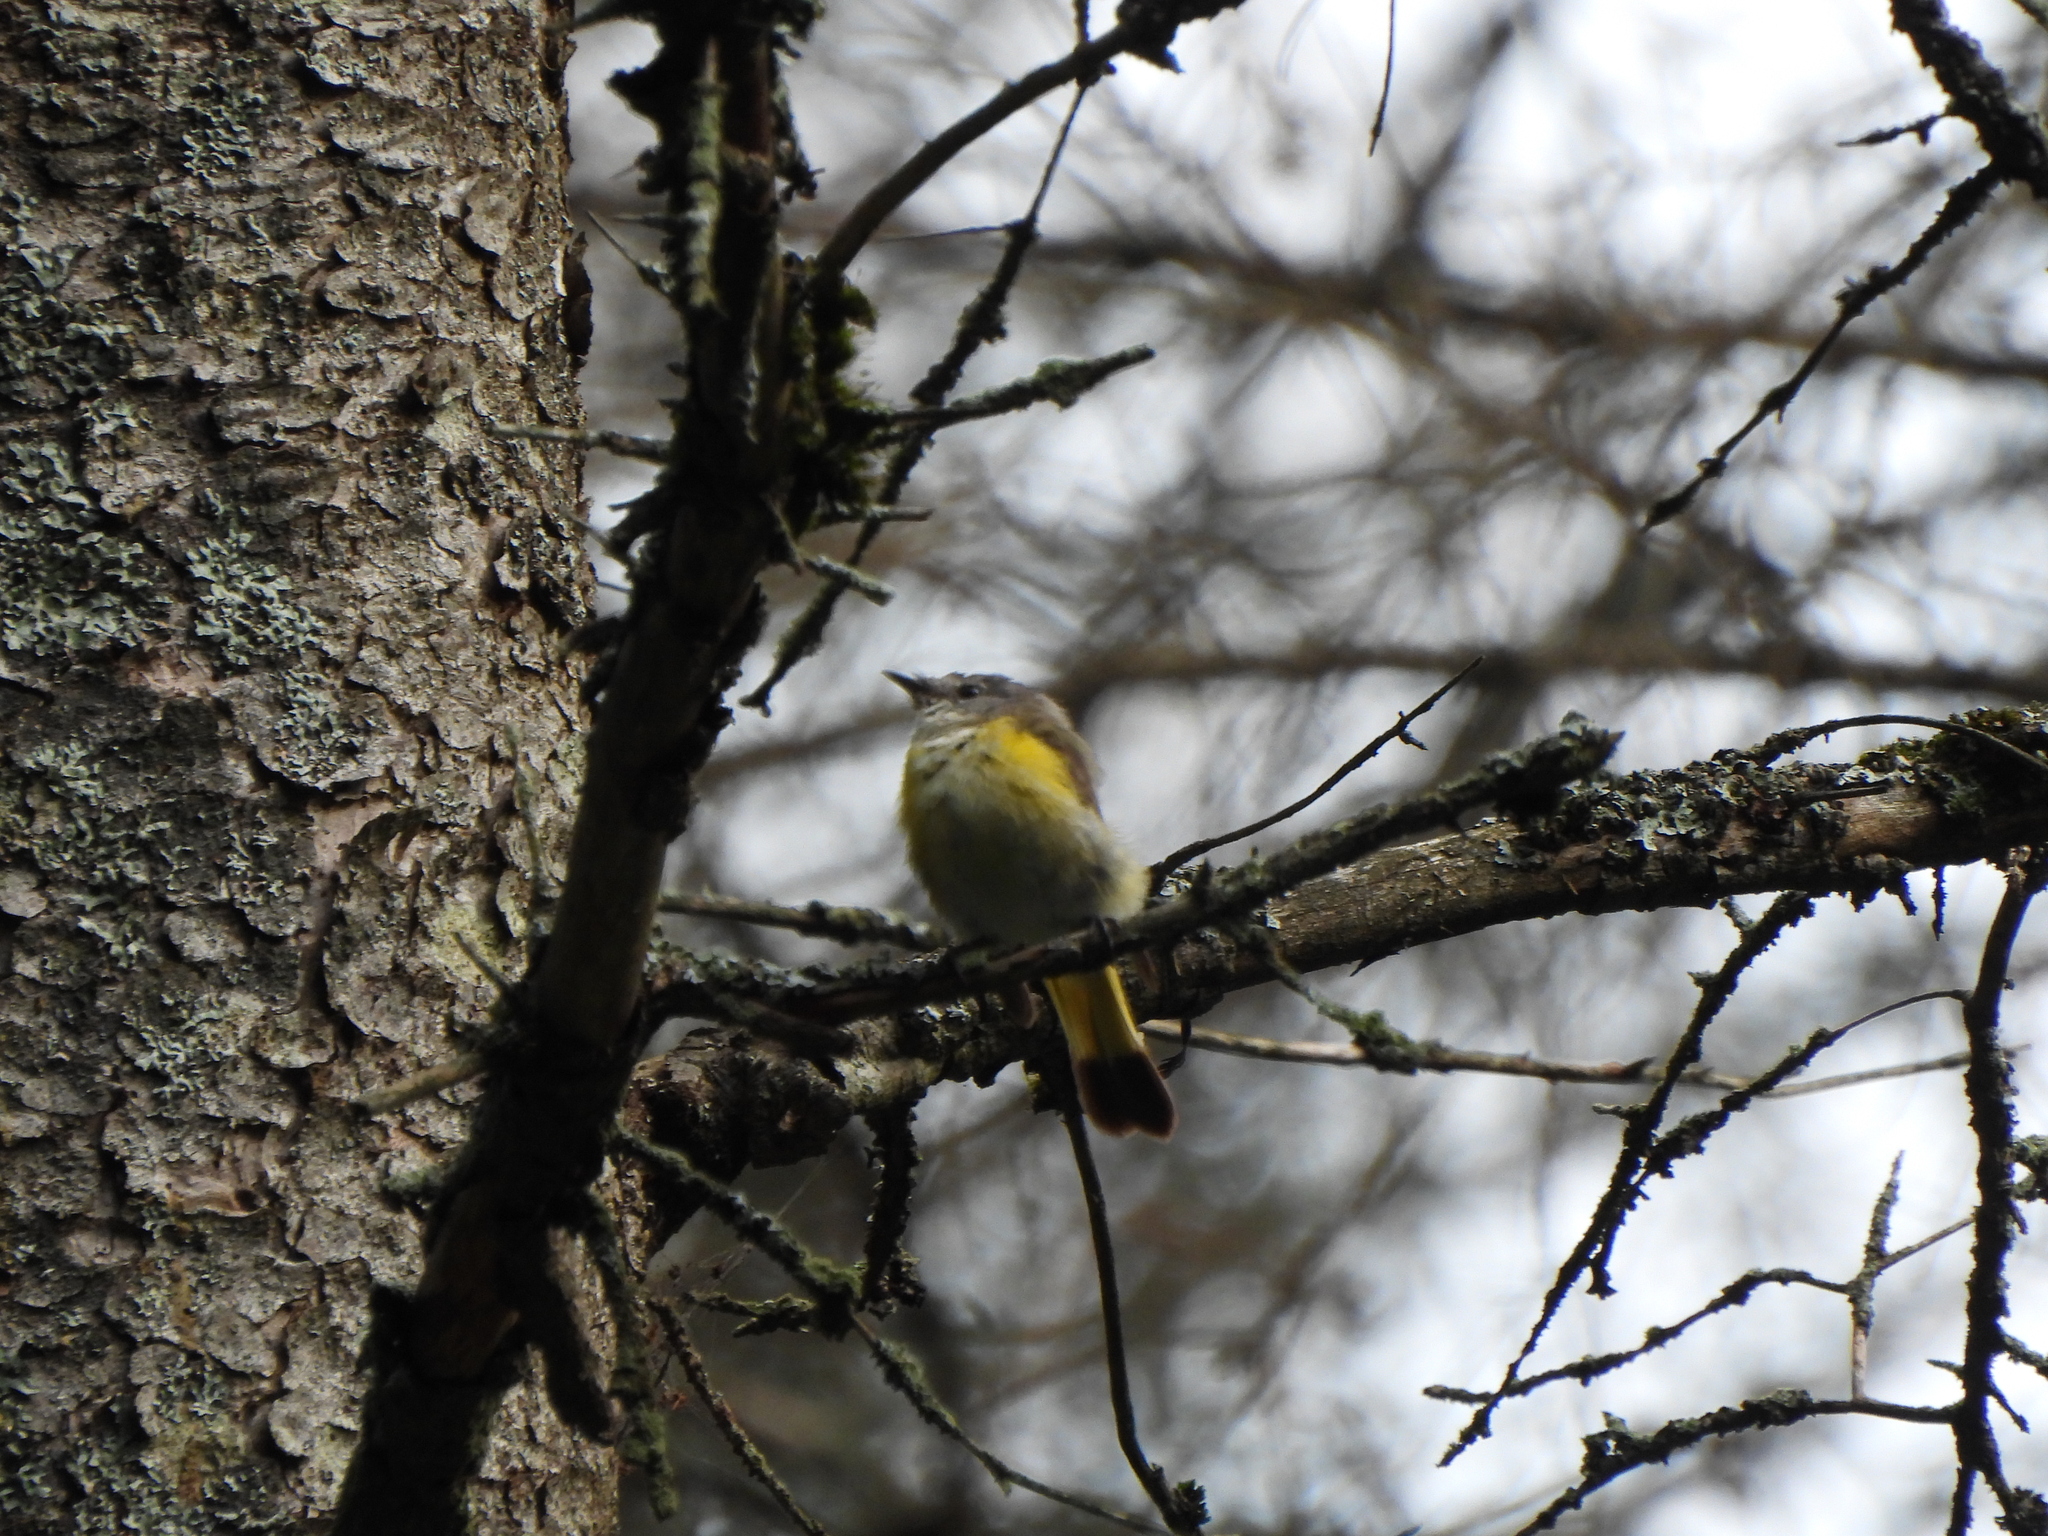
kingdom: Animalia
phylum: Chordata
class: Aves
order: Passeriformes
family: Parulidae
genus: Setophaga
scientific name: Setophaga ruticilla
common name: American redstart
